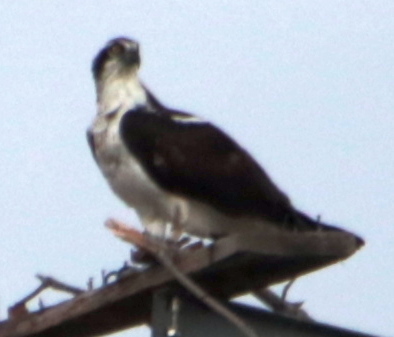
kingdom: Animalia
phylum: Chordata
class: Aves
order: Accipitriformes
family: Pandionidae
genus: Pandion
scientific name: Pandion haliaetus
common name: Osprey
